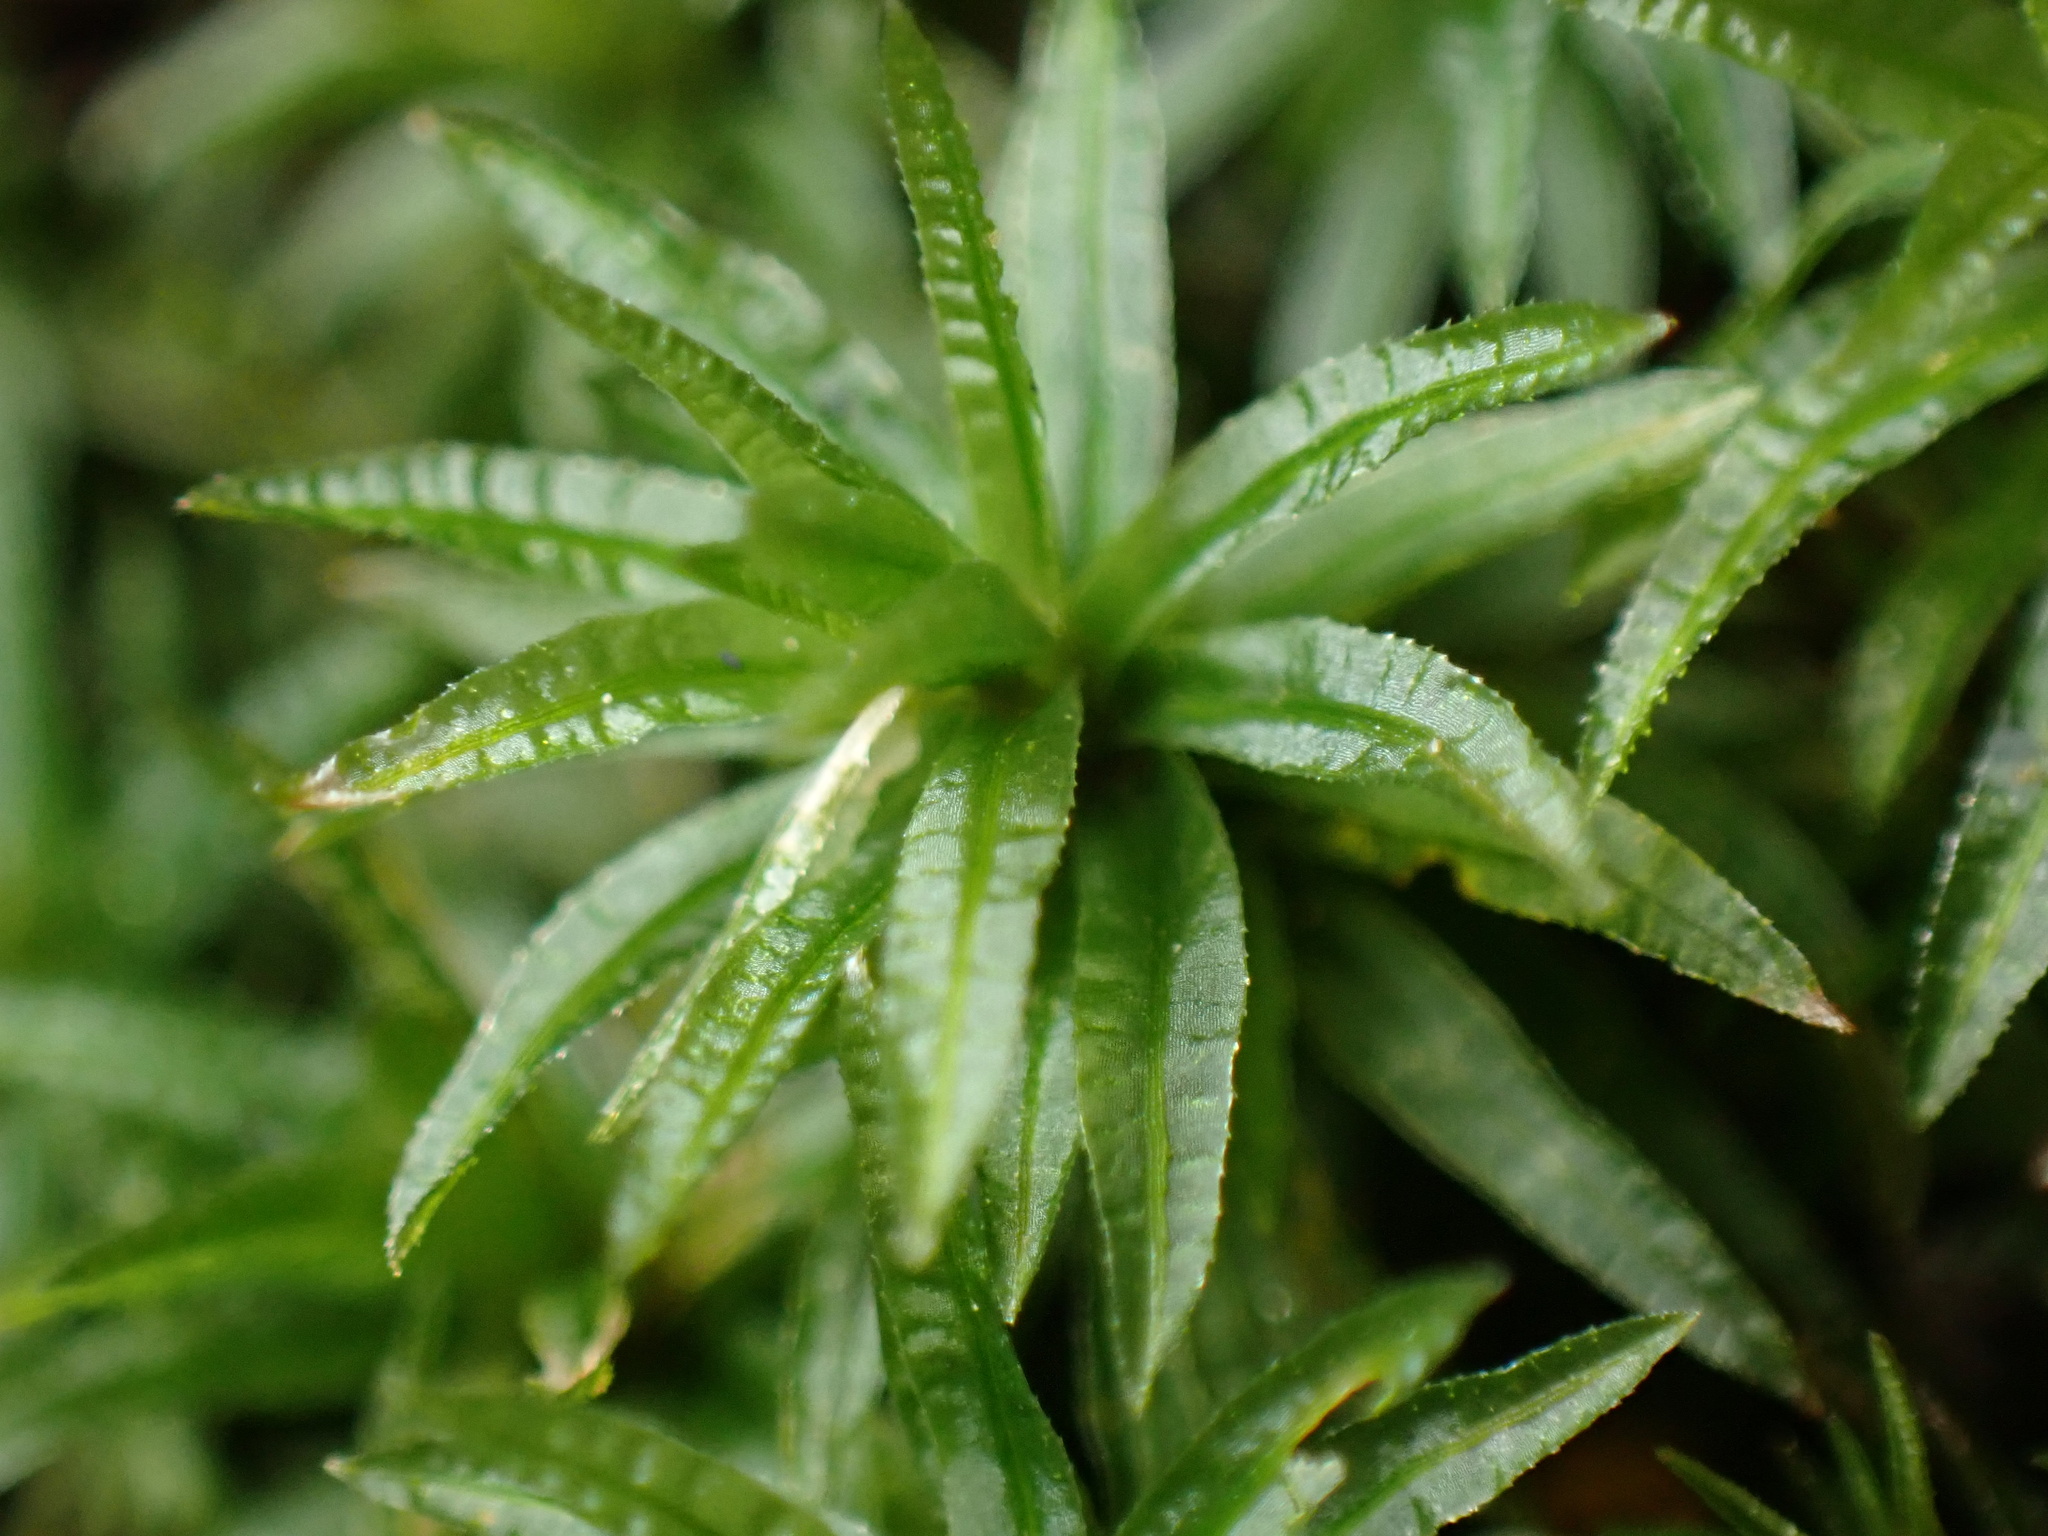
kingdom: Plantae
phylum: Bryophyta
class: Polytrichopsida
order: Polytrichales
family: Polytrichaceae
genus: Atrichum
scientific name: Atrichum undulatum
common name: Common smoothcap
